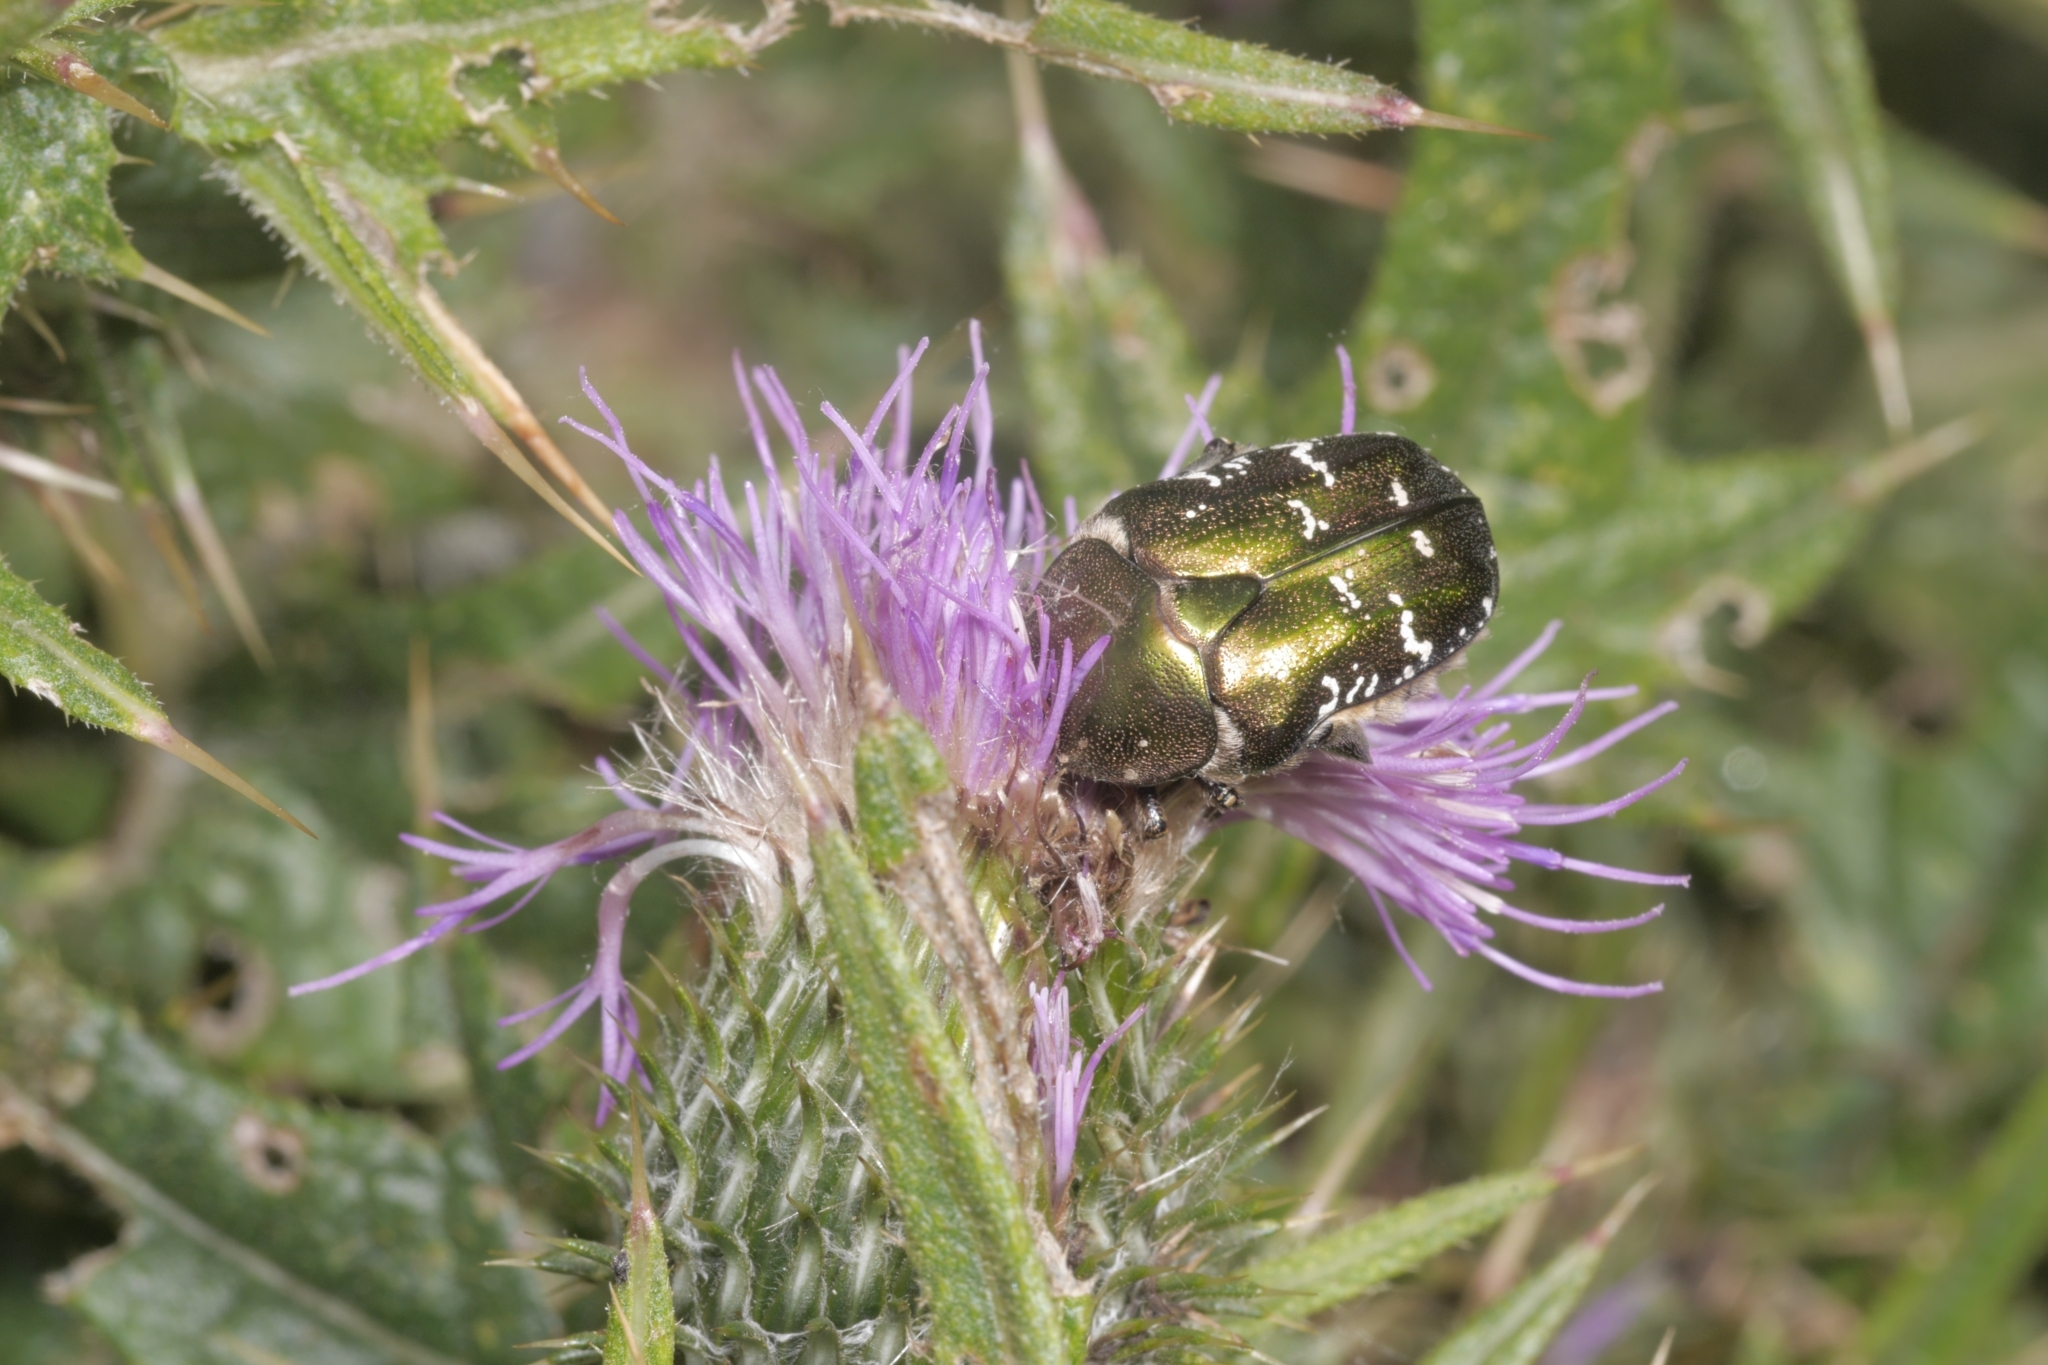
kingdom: Animalia
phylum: Arthropoda
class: Insecta
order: Coleoptera
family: Scarabaeidae
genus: Protaetia
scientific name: Protaetia cuprea
